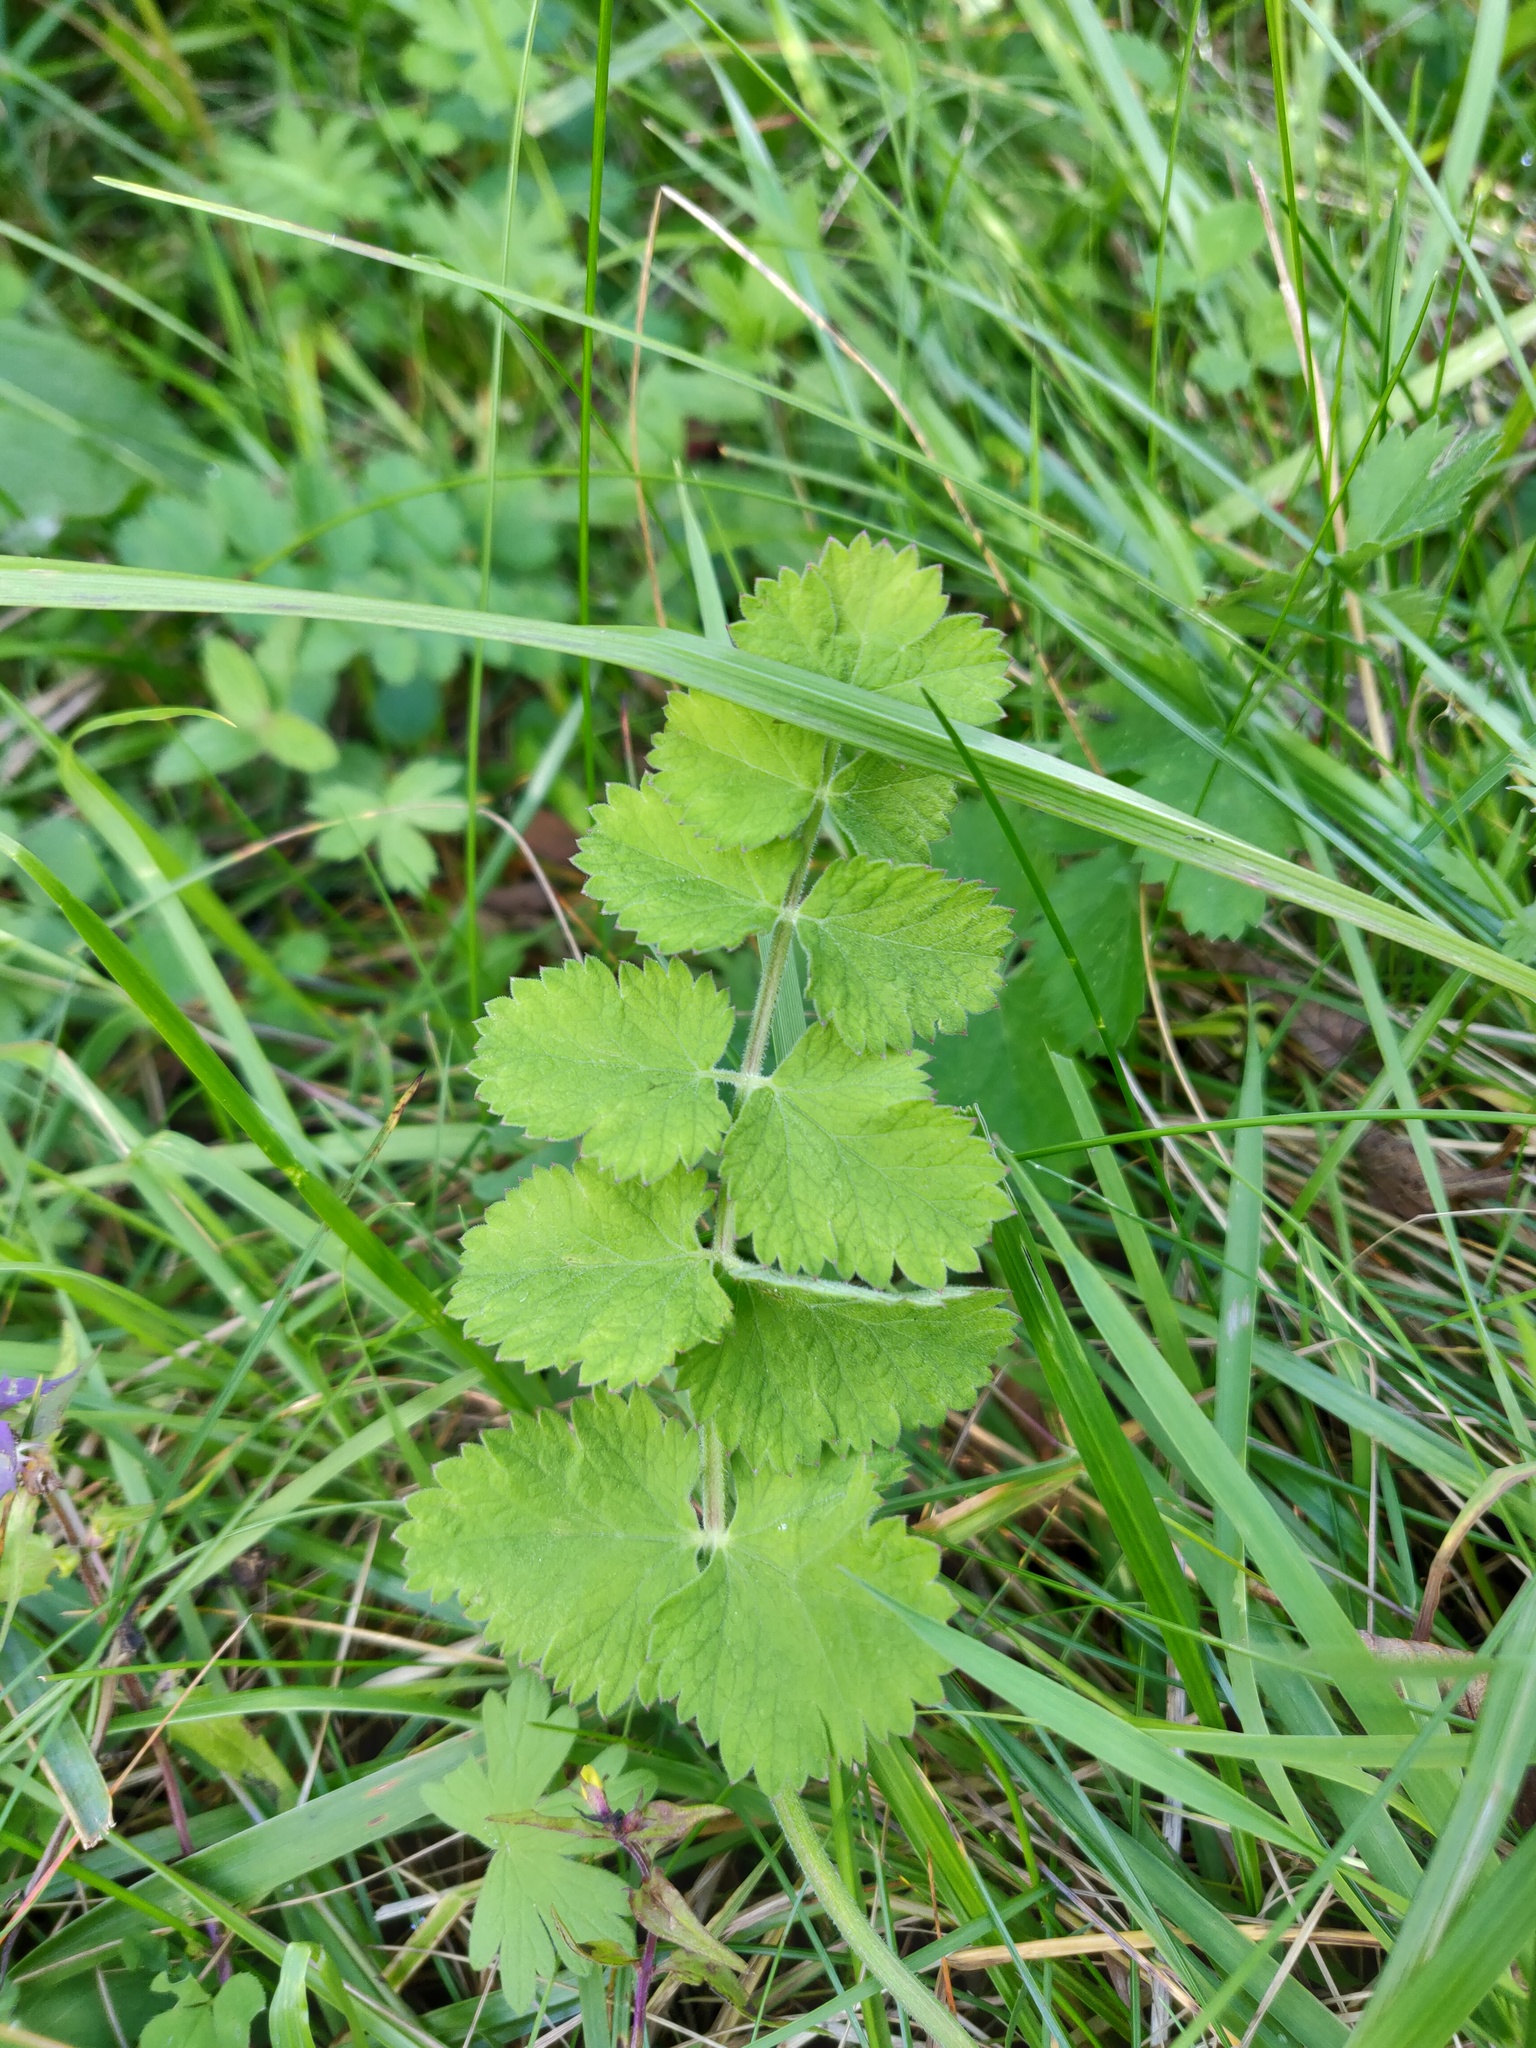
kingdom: Plantae
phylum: Tracheophyta
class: Magnoliopsida
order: Apiales
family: Apiaceae
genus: Pimpinella
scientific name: Pimpinella saxifraga
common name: Burnet-saxifrage
